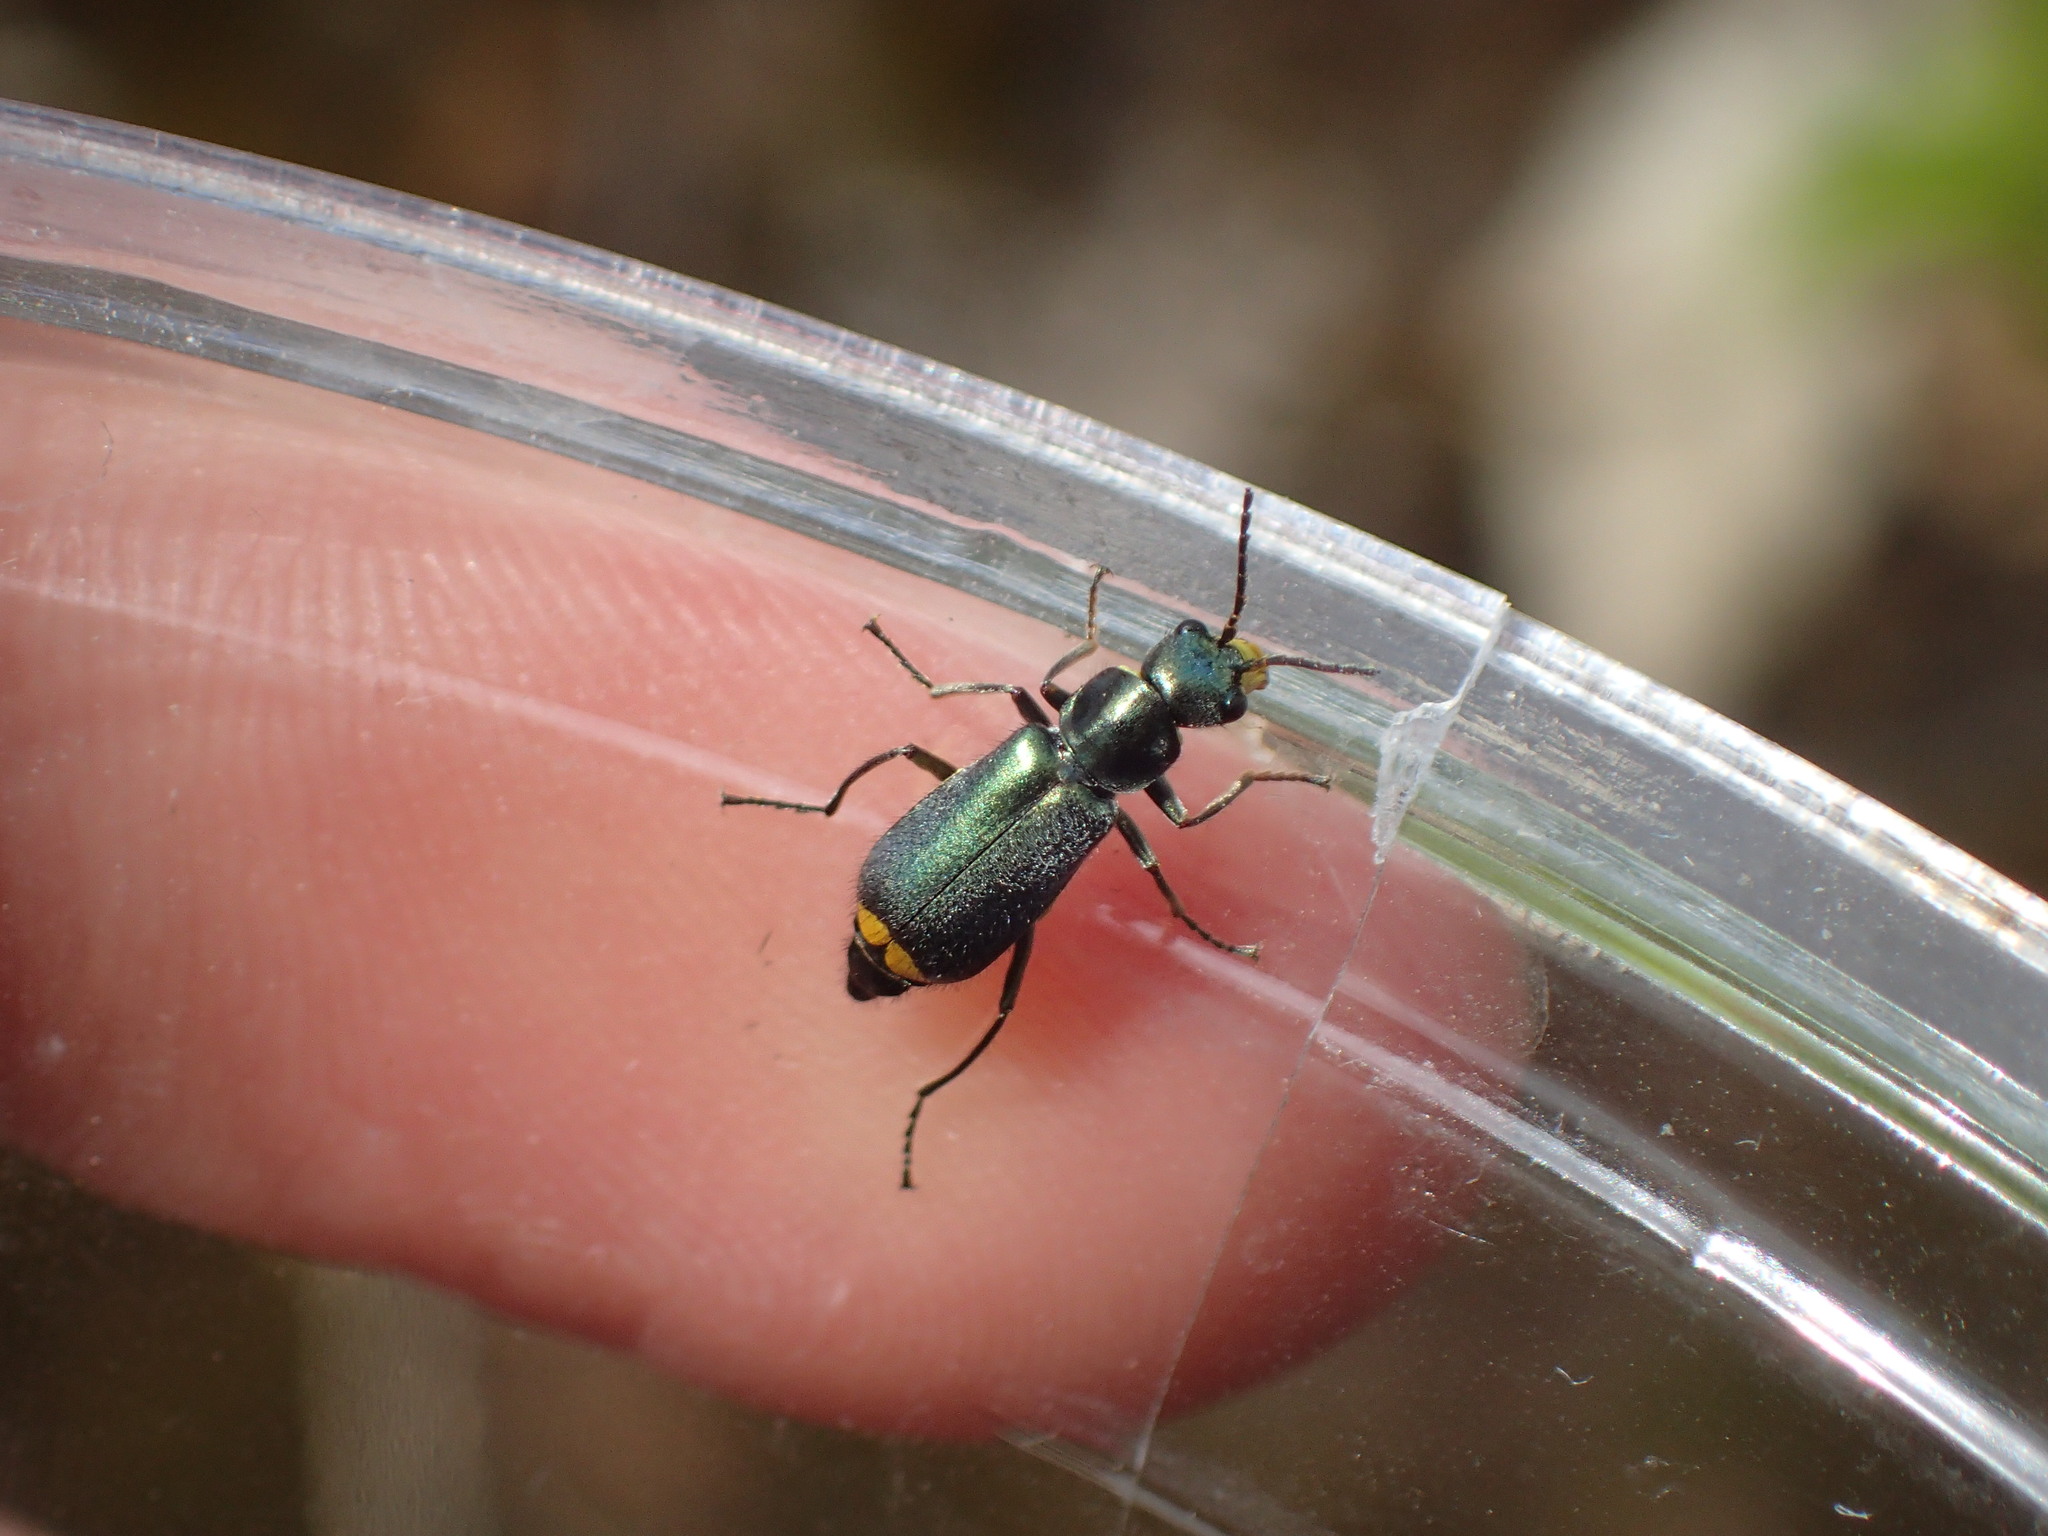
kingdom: Animalia
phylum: Arthropoda
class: Insecta
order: Coleoptera
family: Malachiidae
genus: Clanoptilus
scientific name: Clanoptilus marginellus
